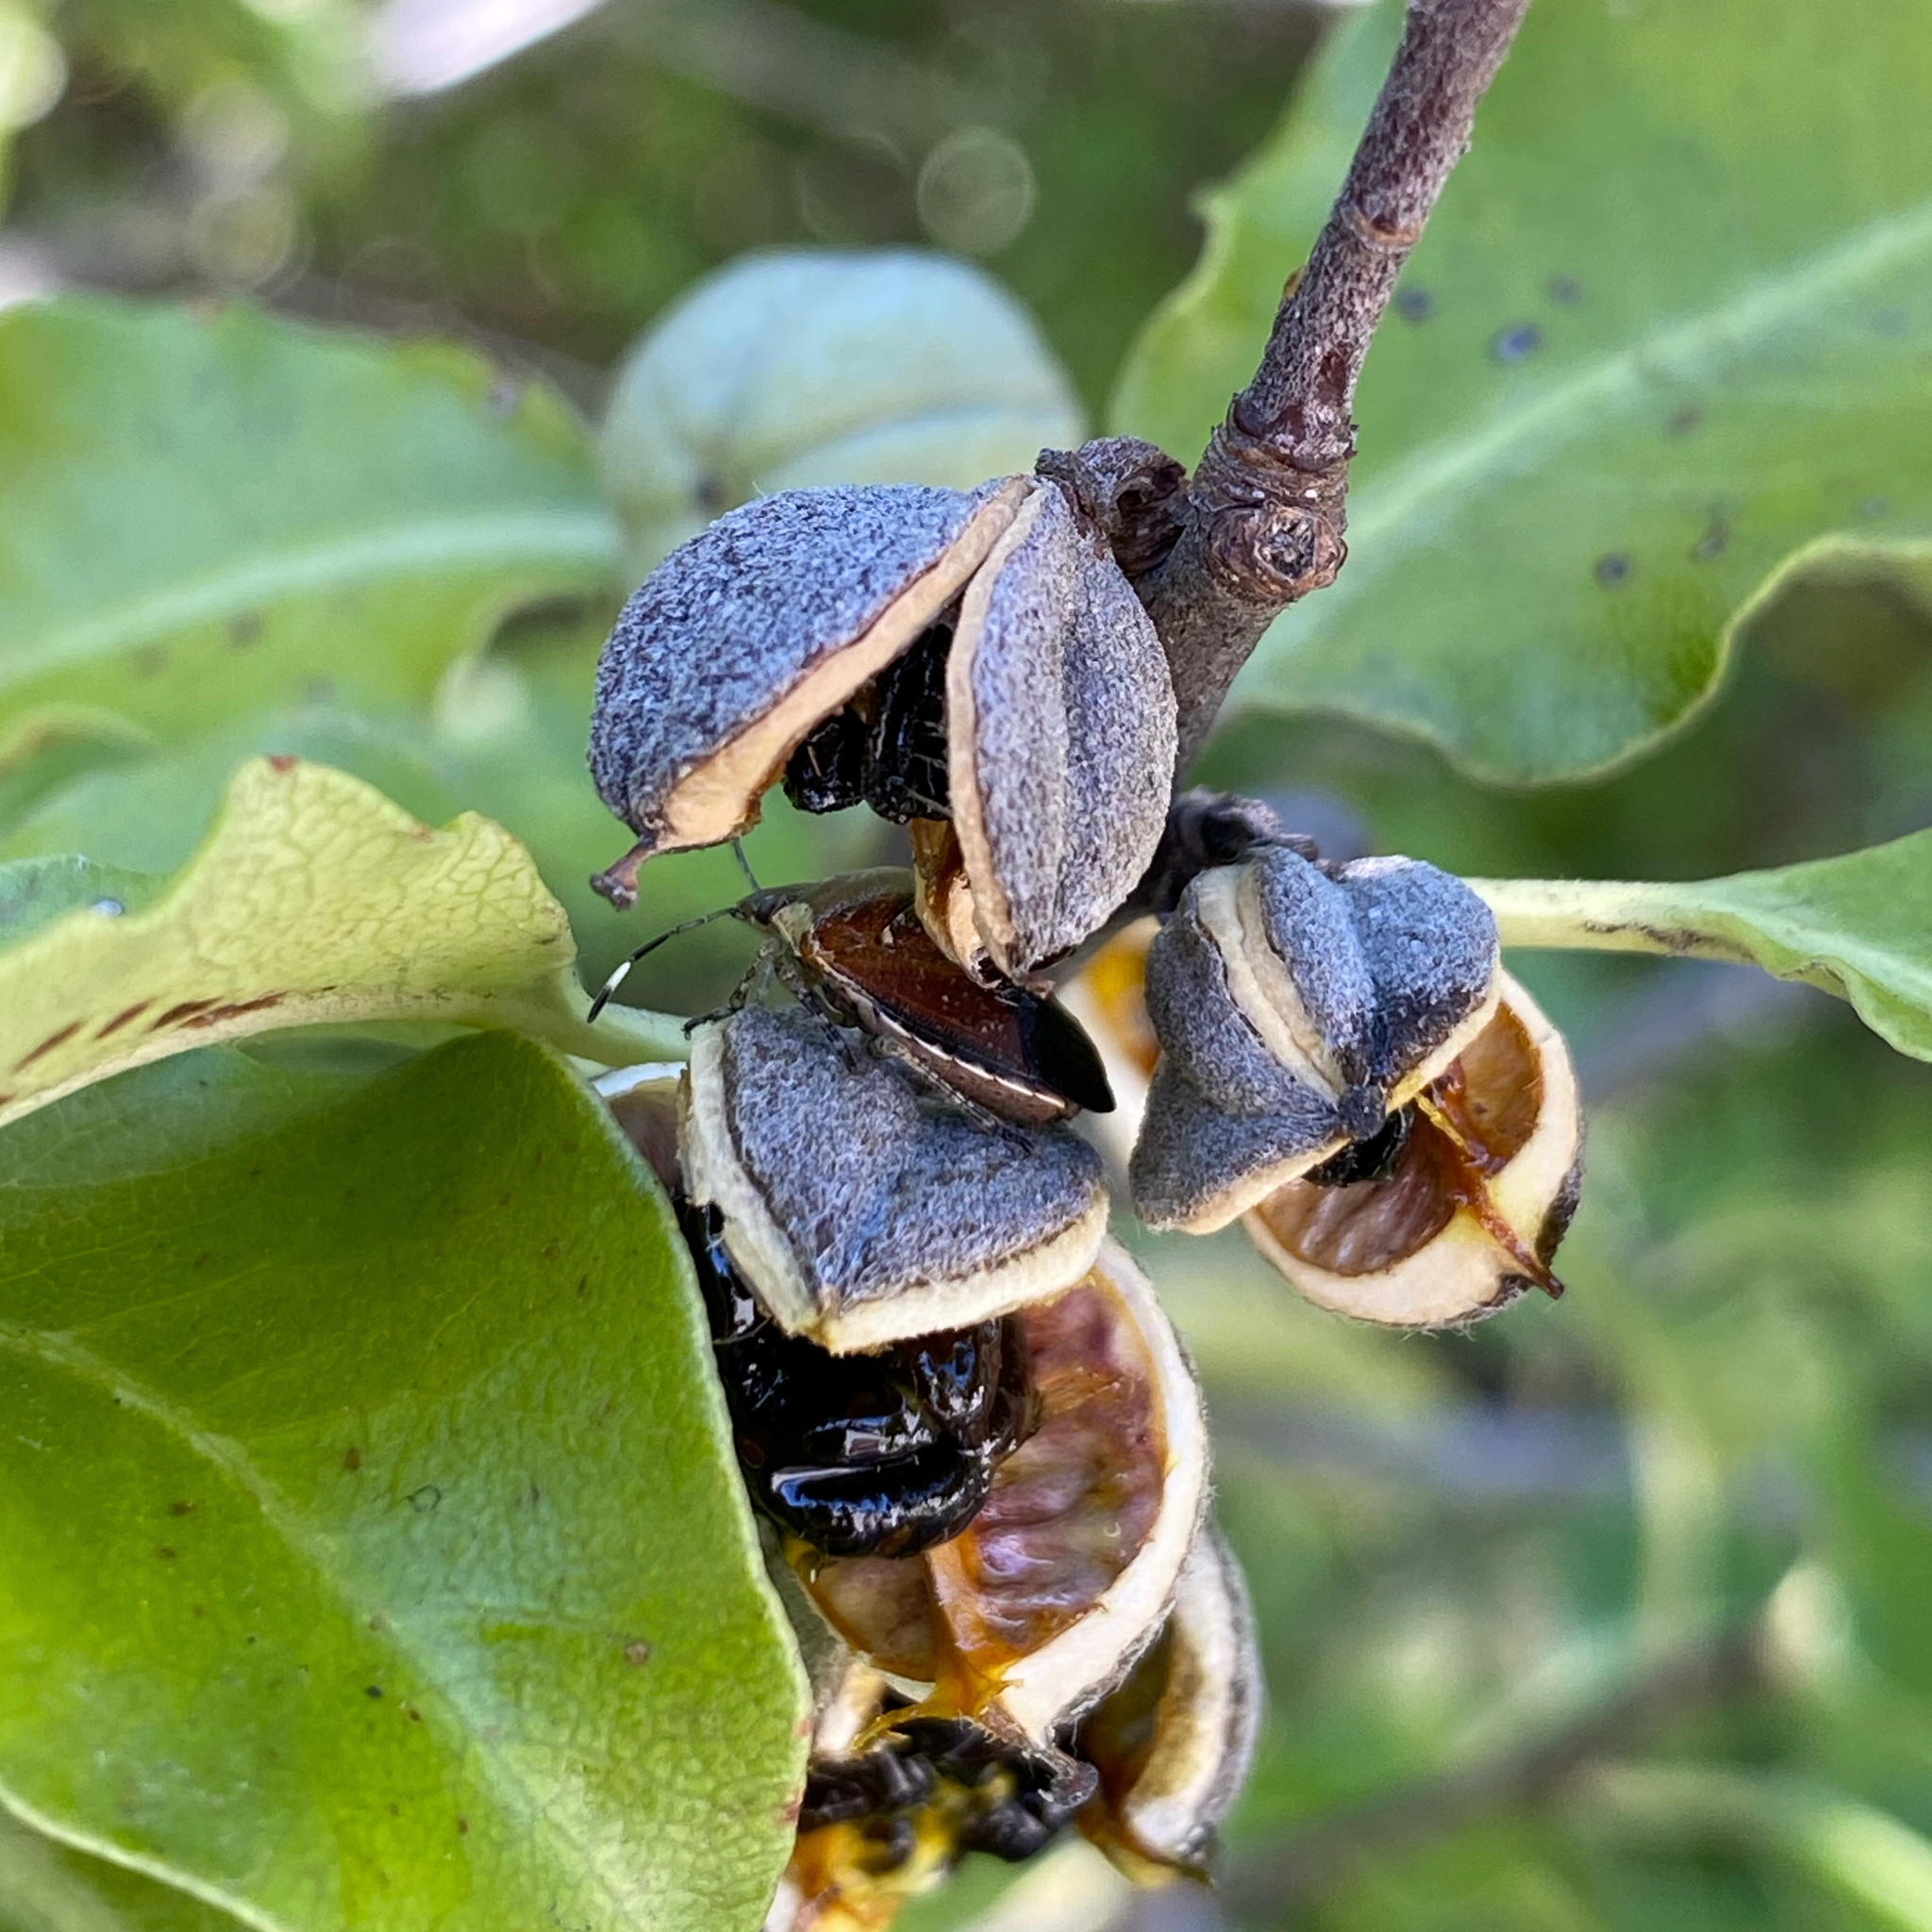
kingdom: Animalia
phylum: Arthropoda
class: Insecta
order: Hemiptera
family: Pentatomidae
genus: Monteithiella
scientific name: Monteithiella
